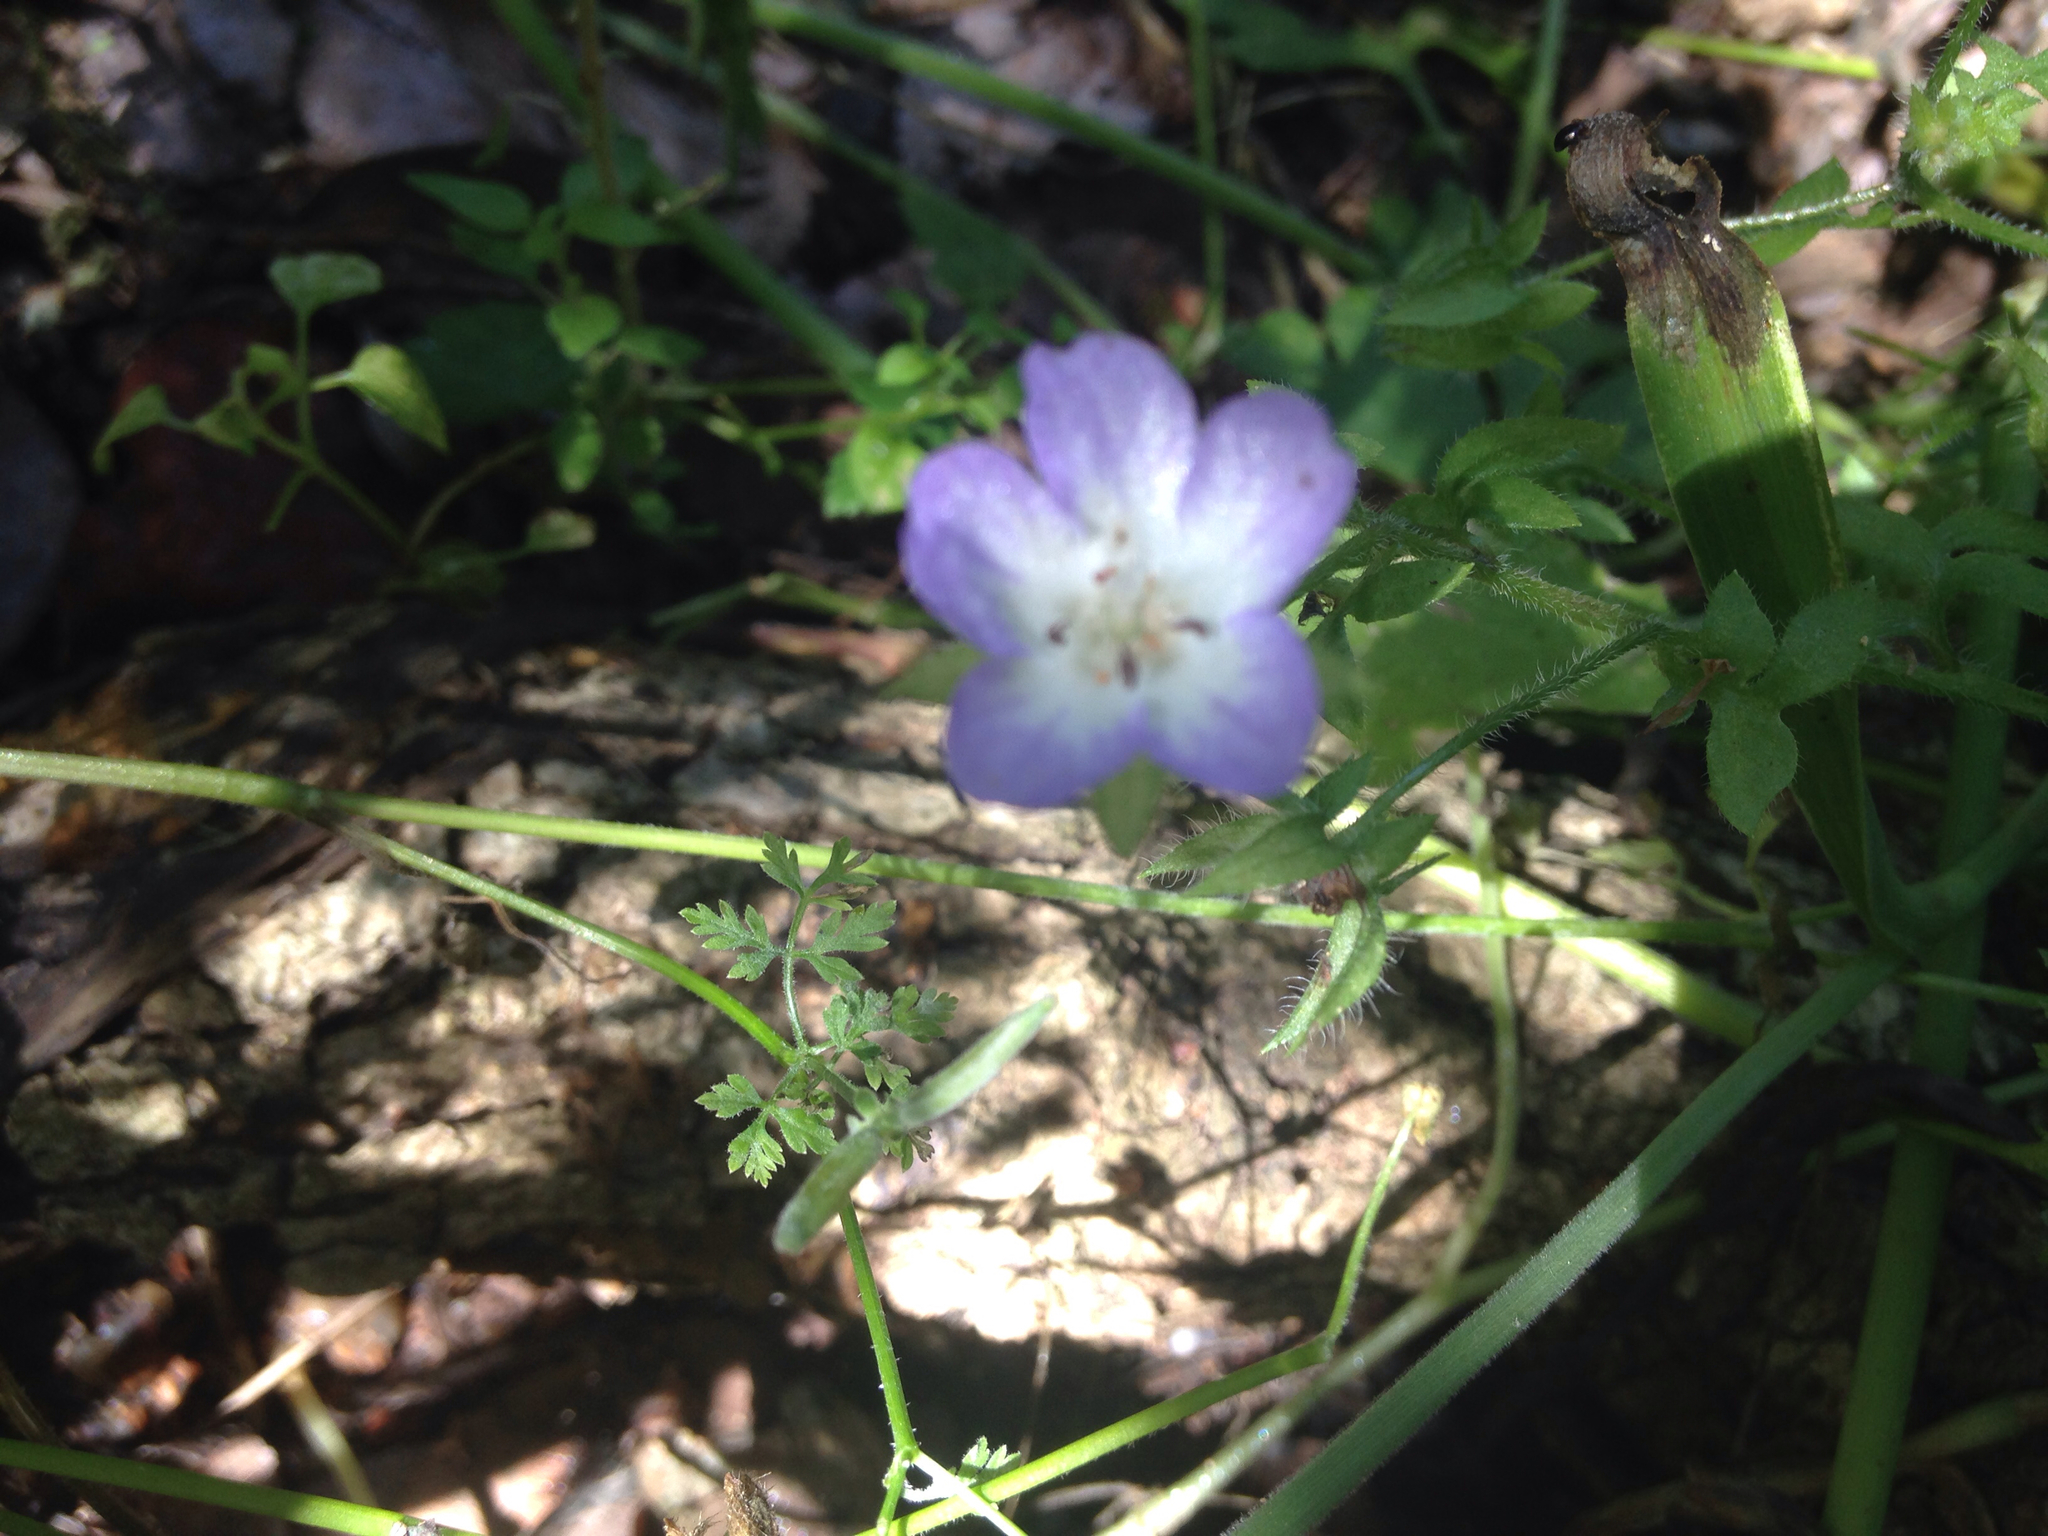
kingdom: Plantae
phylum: Tracheophyta
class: Magnoliopsida
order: Boraginales
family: Hydrophyllaceae
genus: Nemophila
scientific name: Nemophila phacelioides
